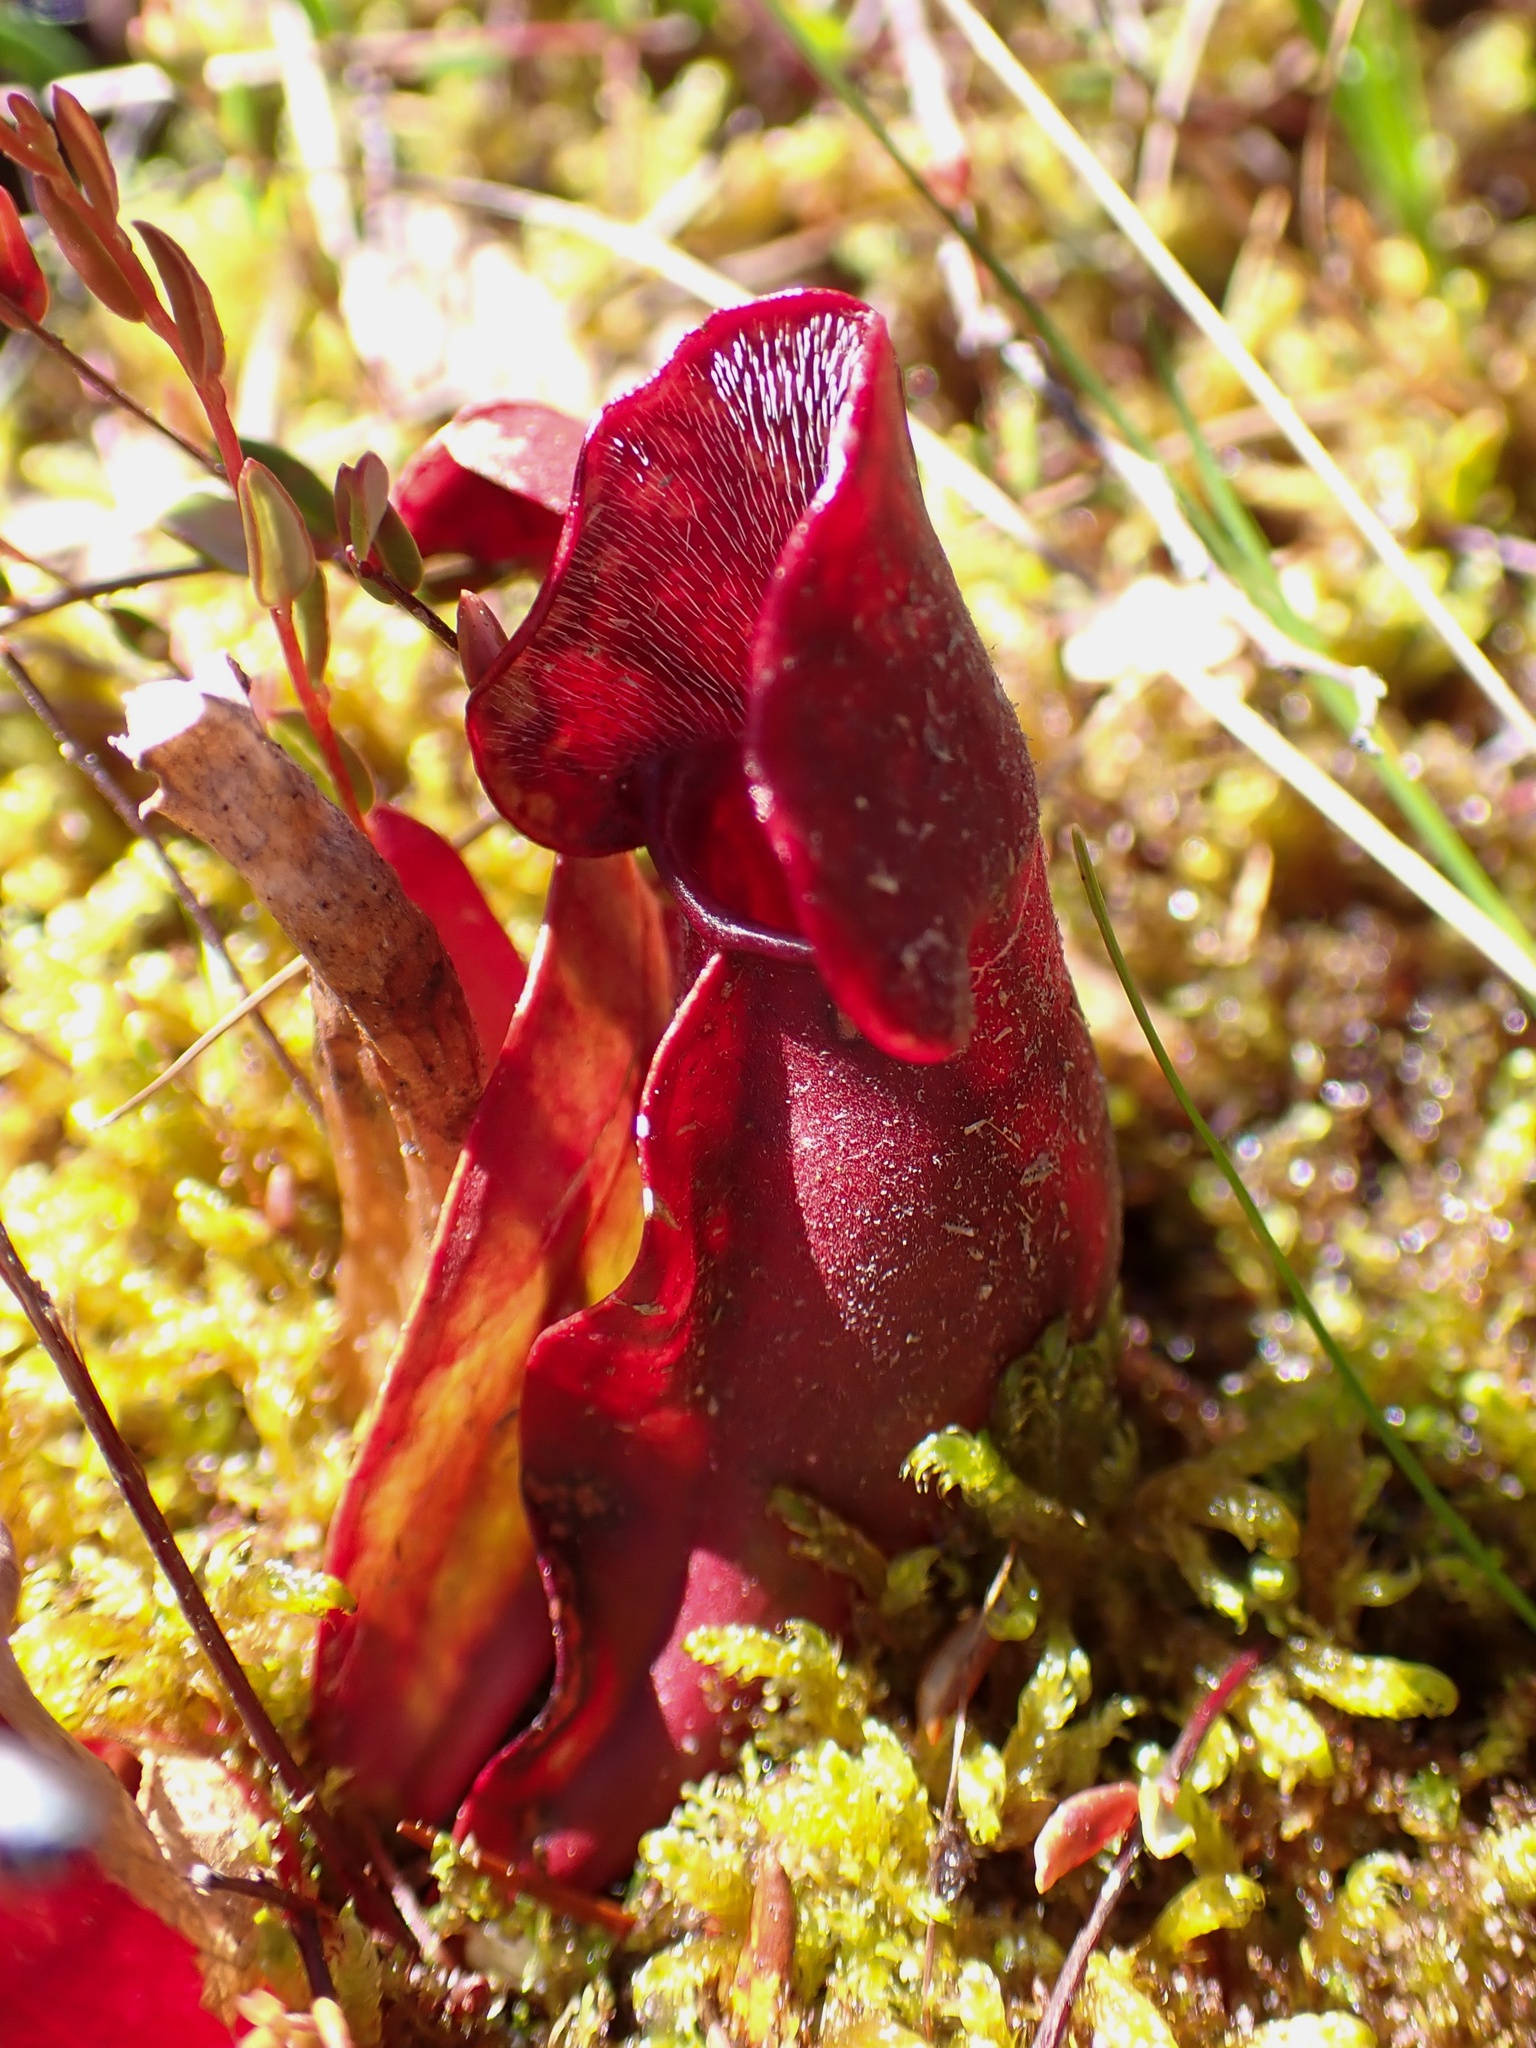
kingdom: Plantae
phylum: Tracheophyta
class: Magnoliopsida
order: Ericales
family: Sarraceniaceae
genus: Sarracenia
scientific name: Sarracenia purpurea
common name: Pitcherplant
